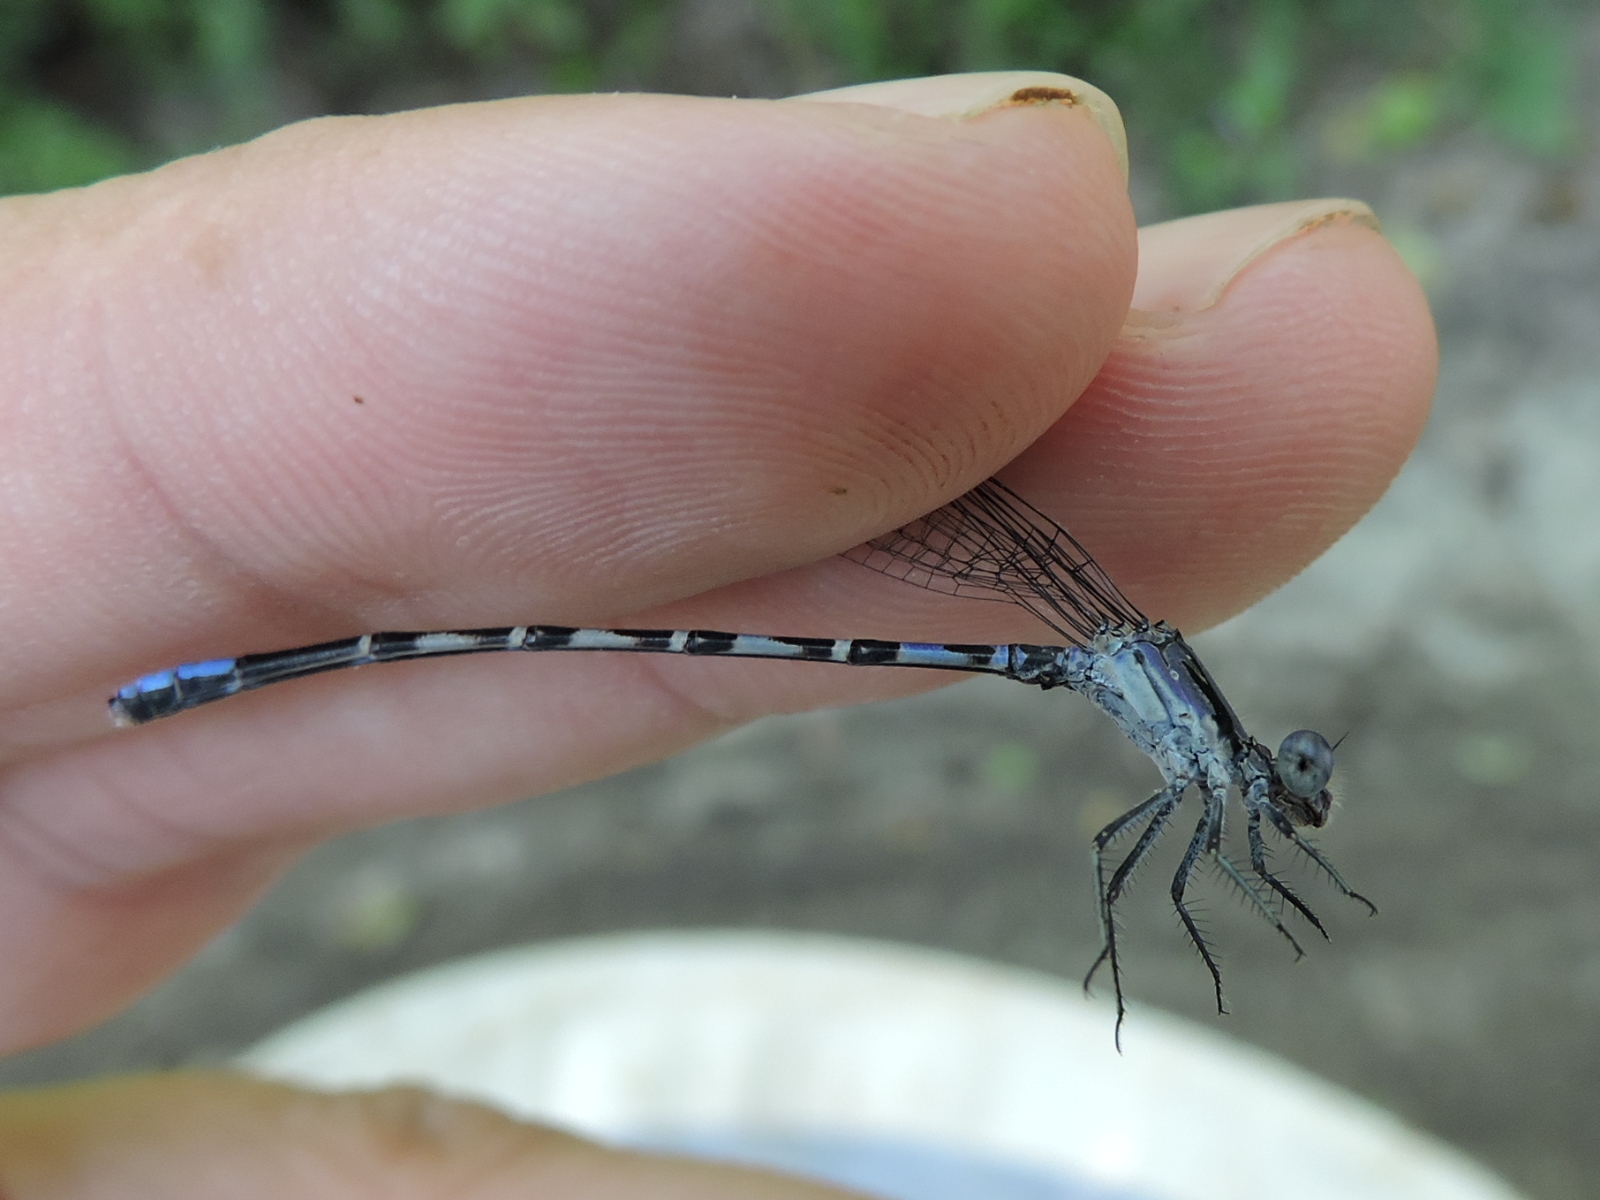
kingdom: Animalia
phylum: Arthropoda
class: Insecta
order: Odonata
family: Coenagrionidae
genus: Argia
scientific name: Argia immunda
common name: Kiowa dancer
